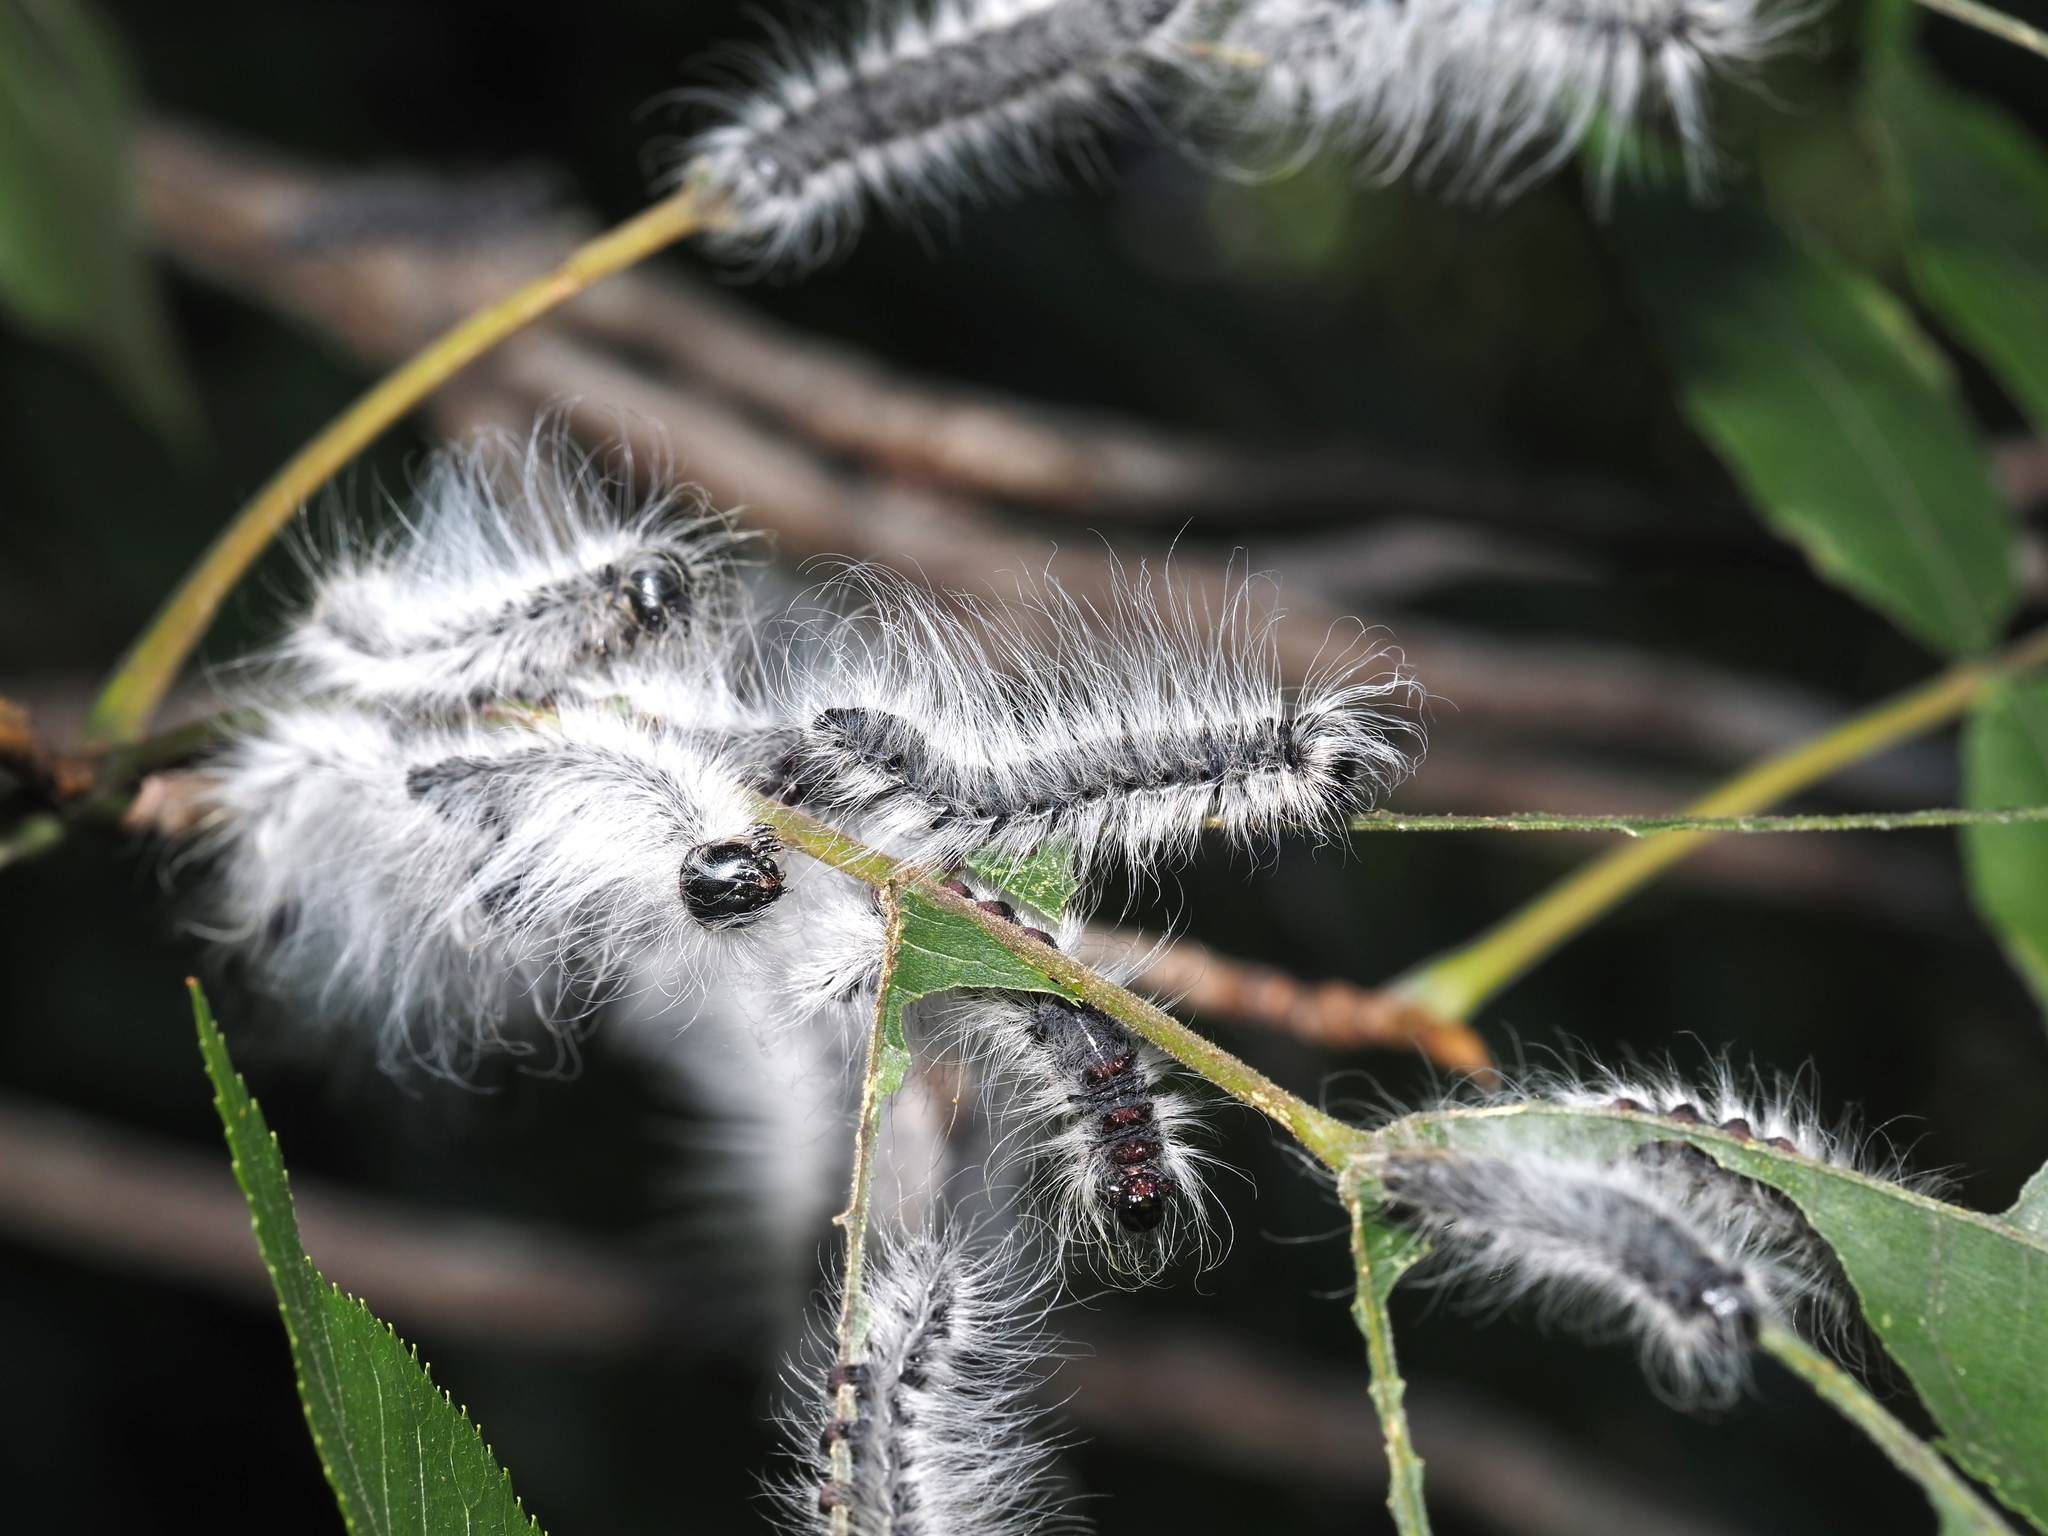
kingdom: Animalia
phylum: Arthropoda
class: Insecta
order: Lepidoptera
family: Notodontidae
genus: Datana
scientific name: Datana integerrima
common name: Walnut caterpillar
